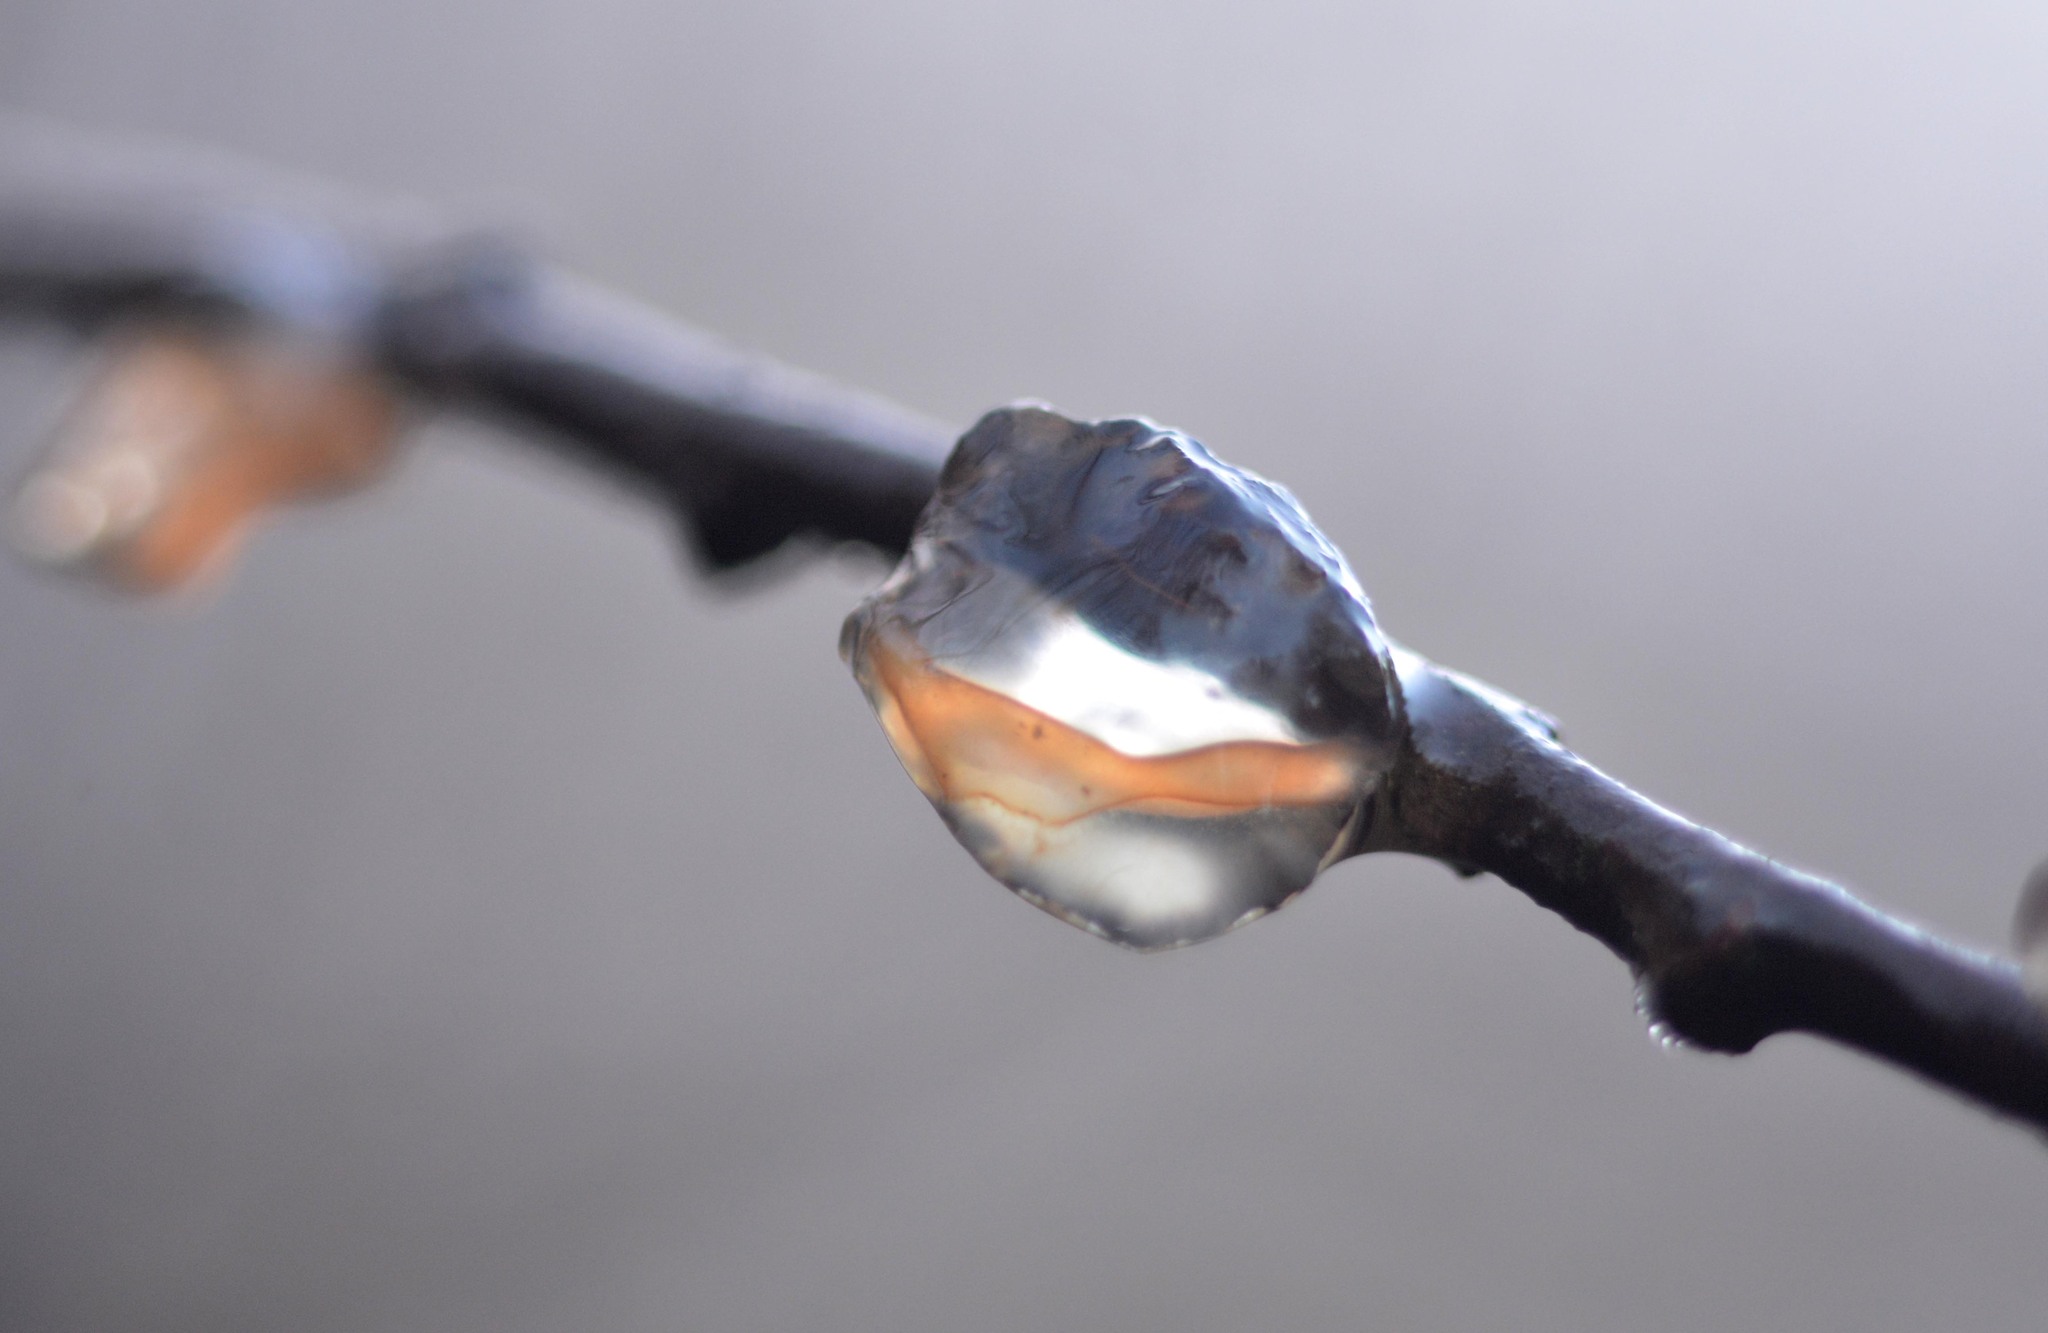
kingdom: Fungi
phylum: Basidiomycota
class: Agaricomycetes
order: Auriculariales
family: Auriculariaceae
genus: Exidia
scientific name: Exidia recisa
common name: Amber jelly
